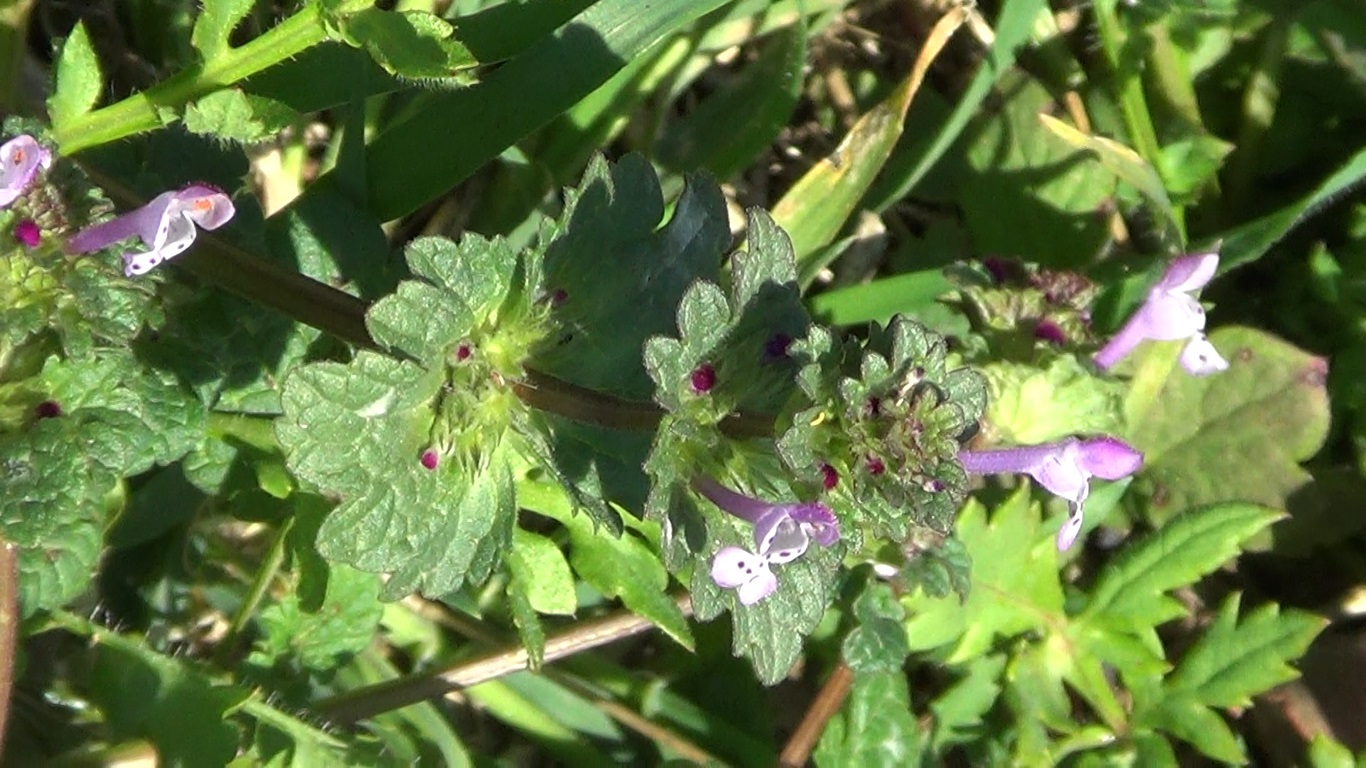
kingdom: Plantae
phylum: Tracheophyta
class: Magnoliopsida
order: Lamiales
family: Lamiaceae
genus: Lamium
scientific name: Lamium amplexicaule
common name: Henbit dead-nettle
